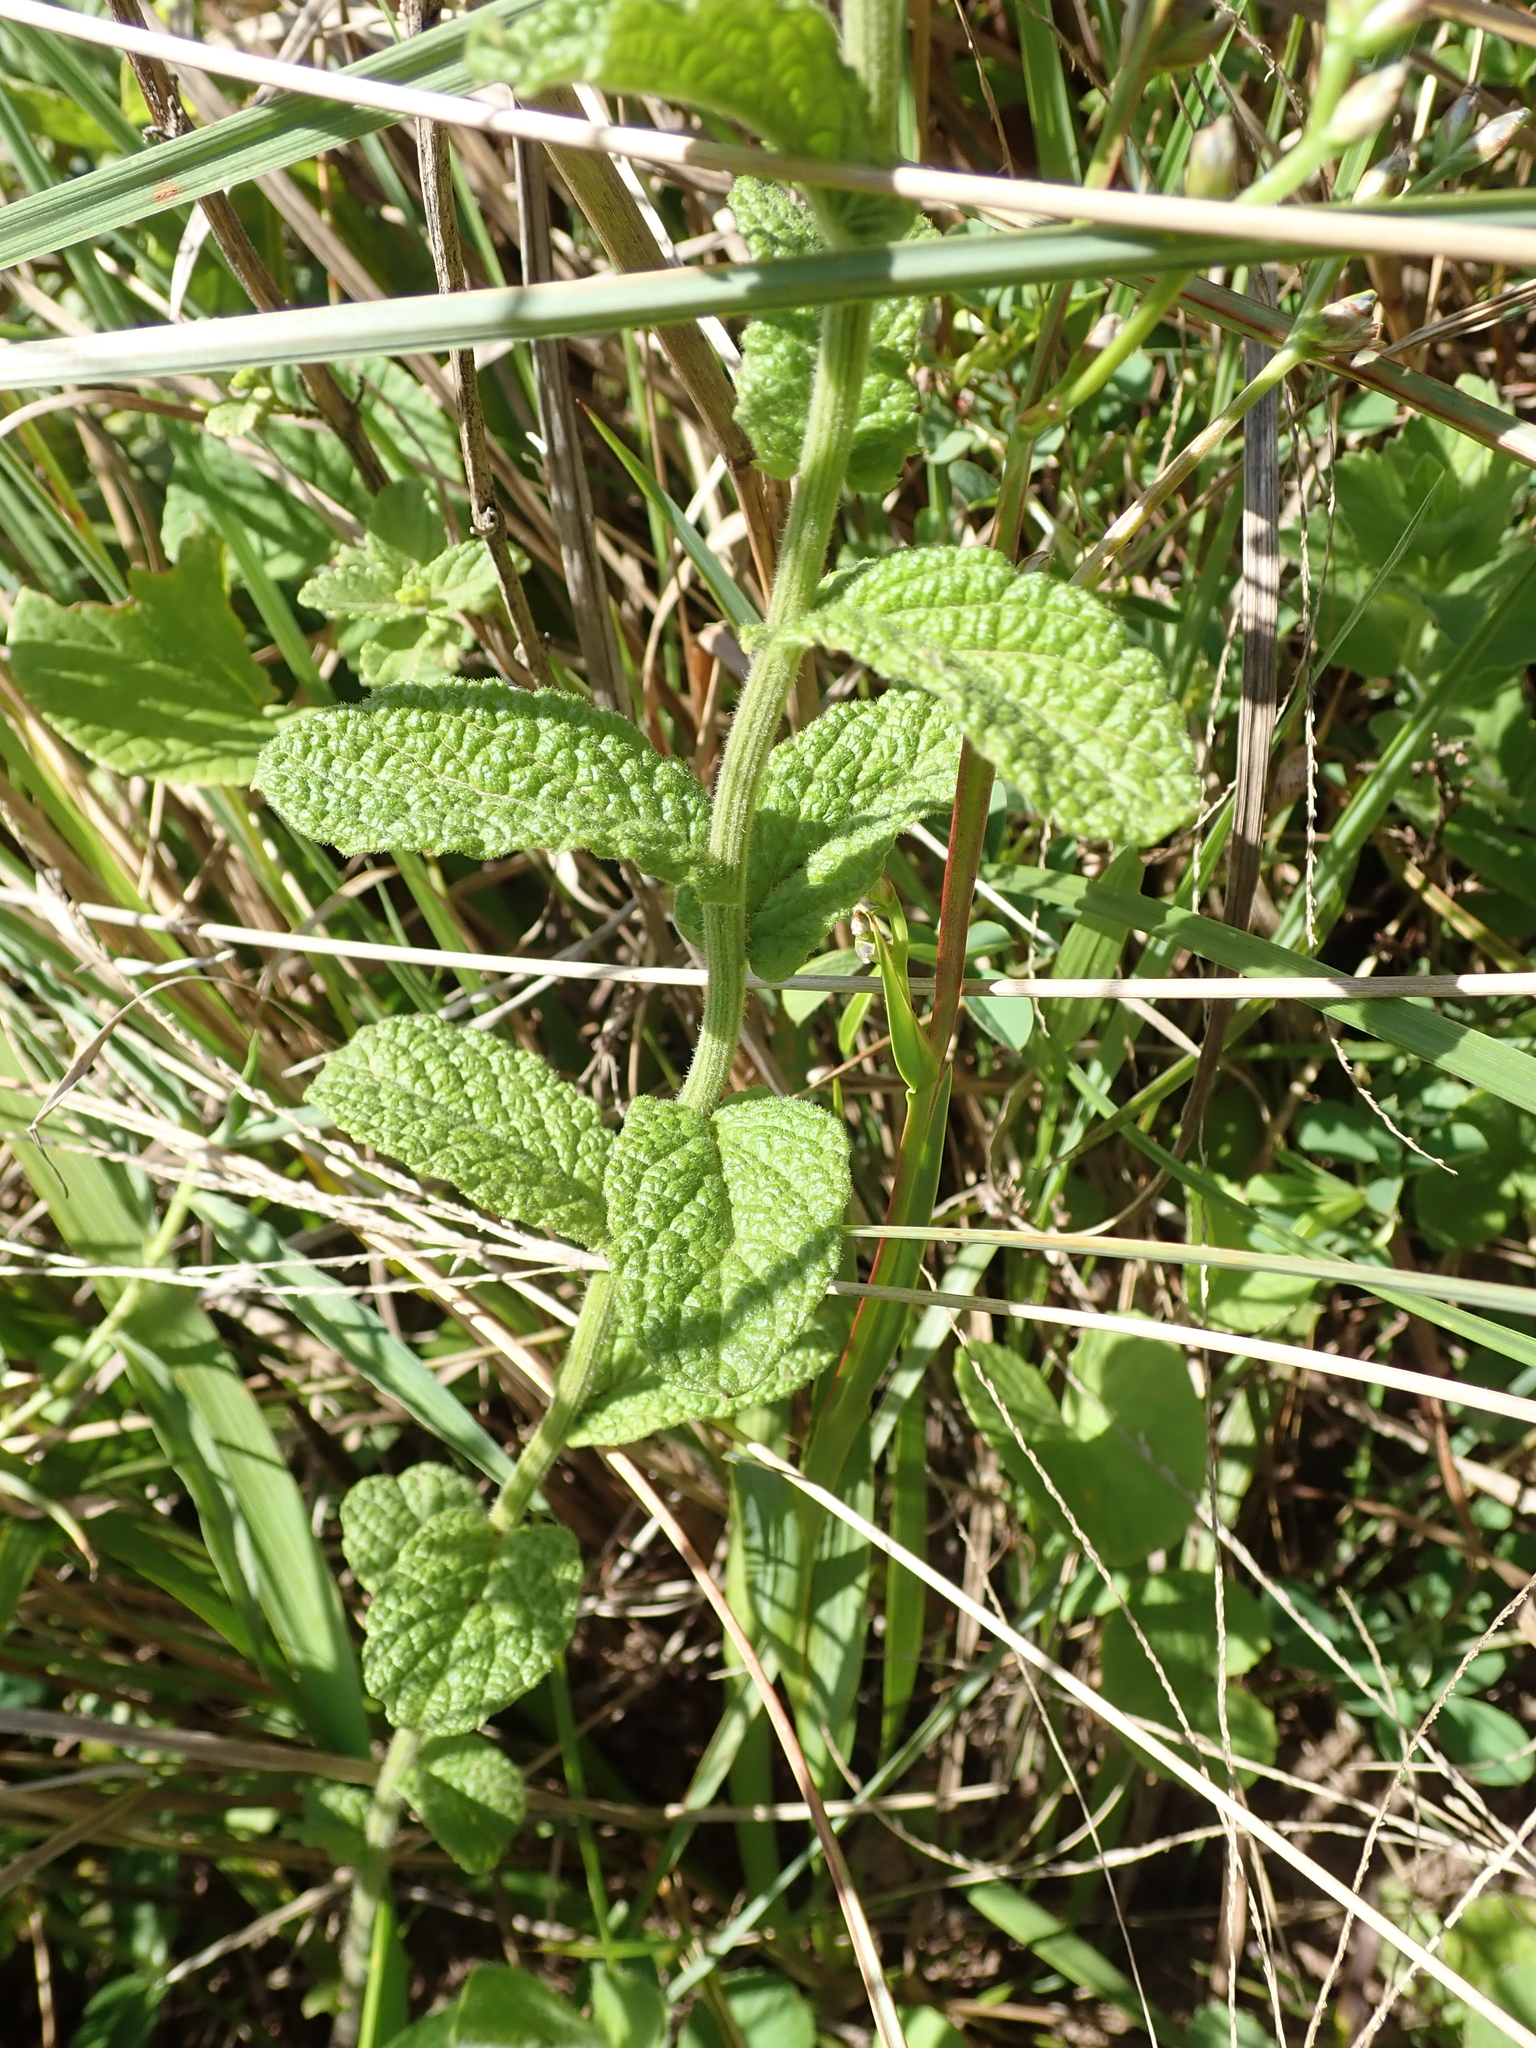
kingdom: Plantae
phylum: Tracheophyta
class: Magnoliopsida
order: Asterales
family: Asteraceae
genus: Hilliardiella
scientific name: Hilliardiella hirsuta
